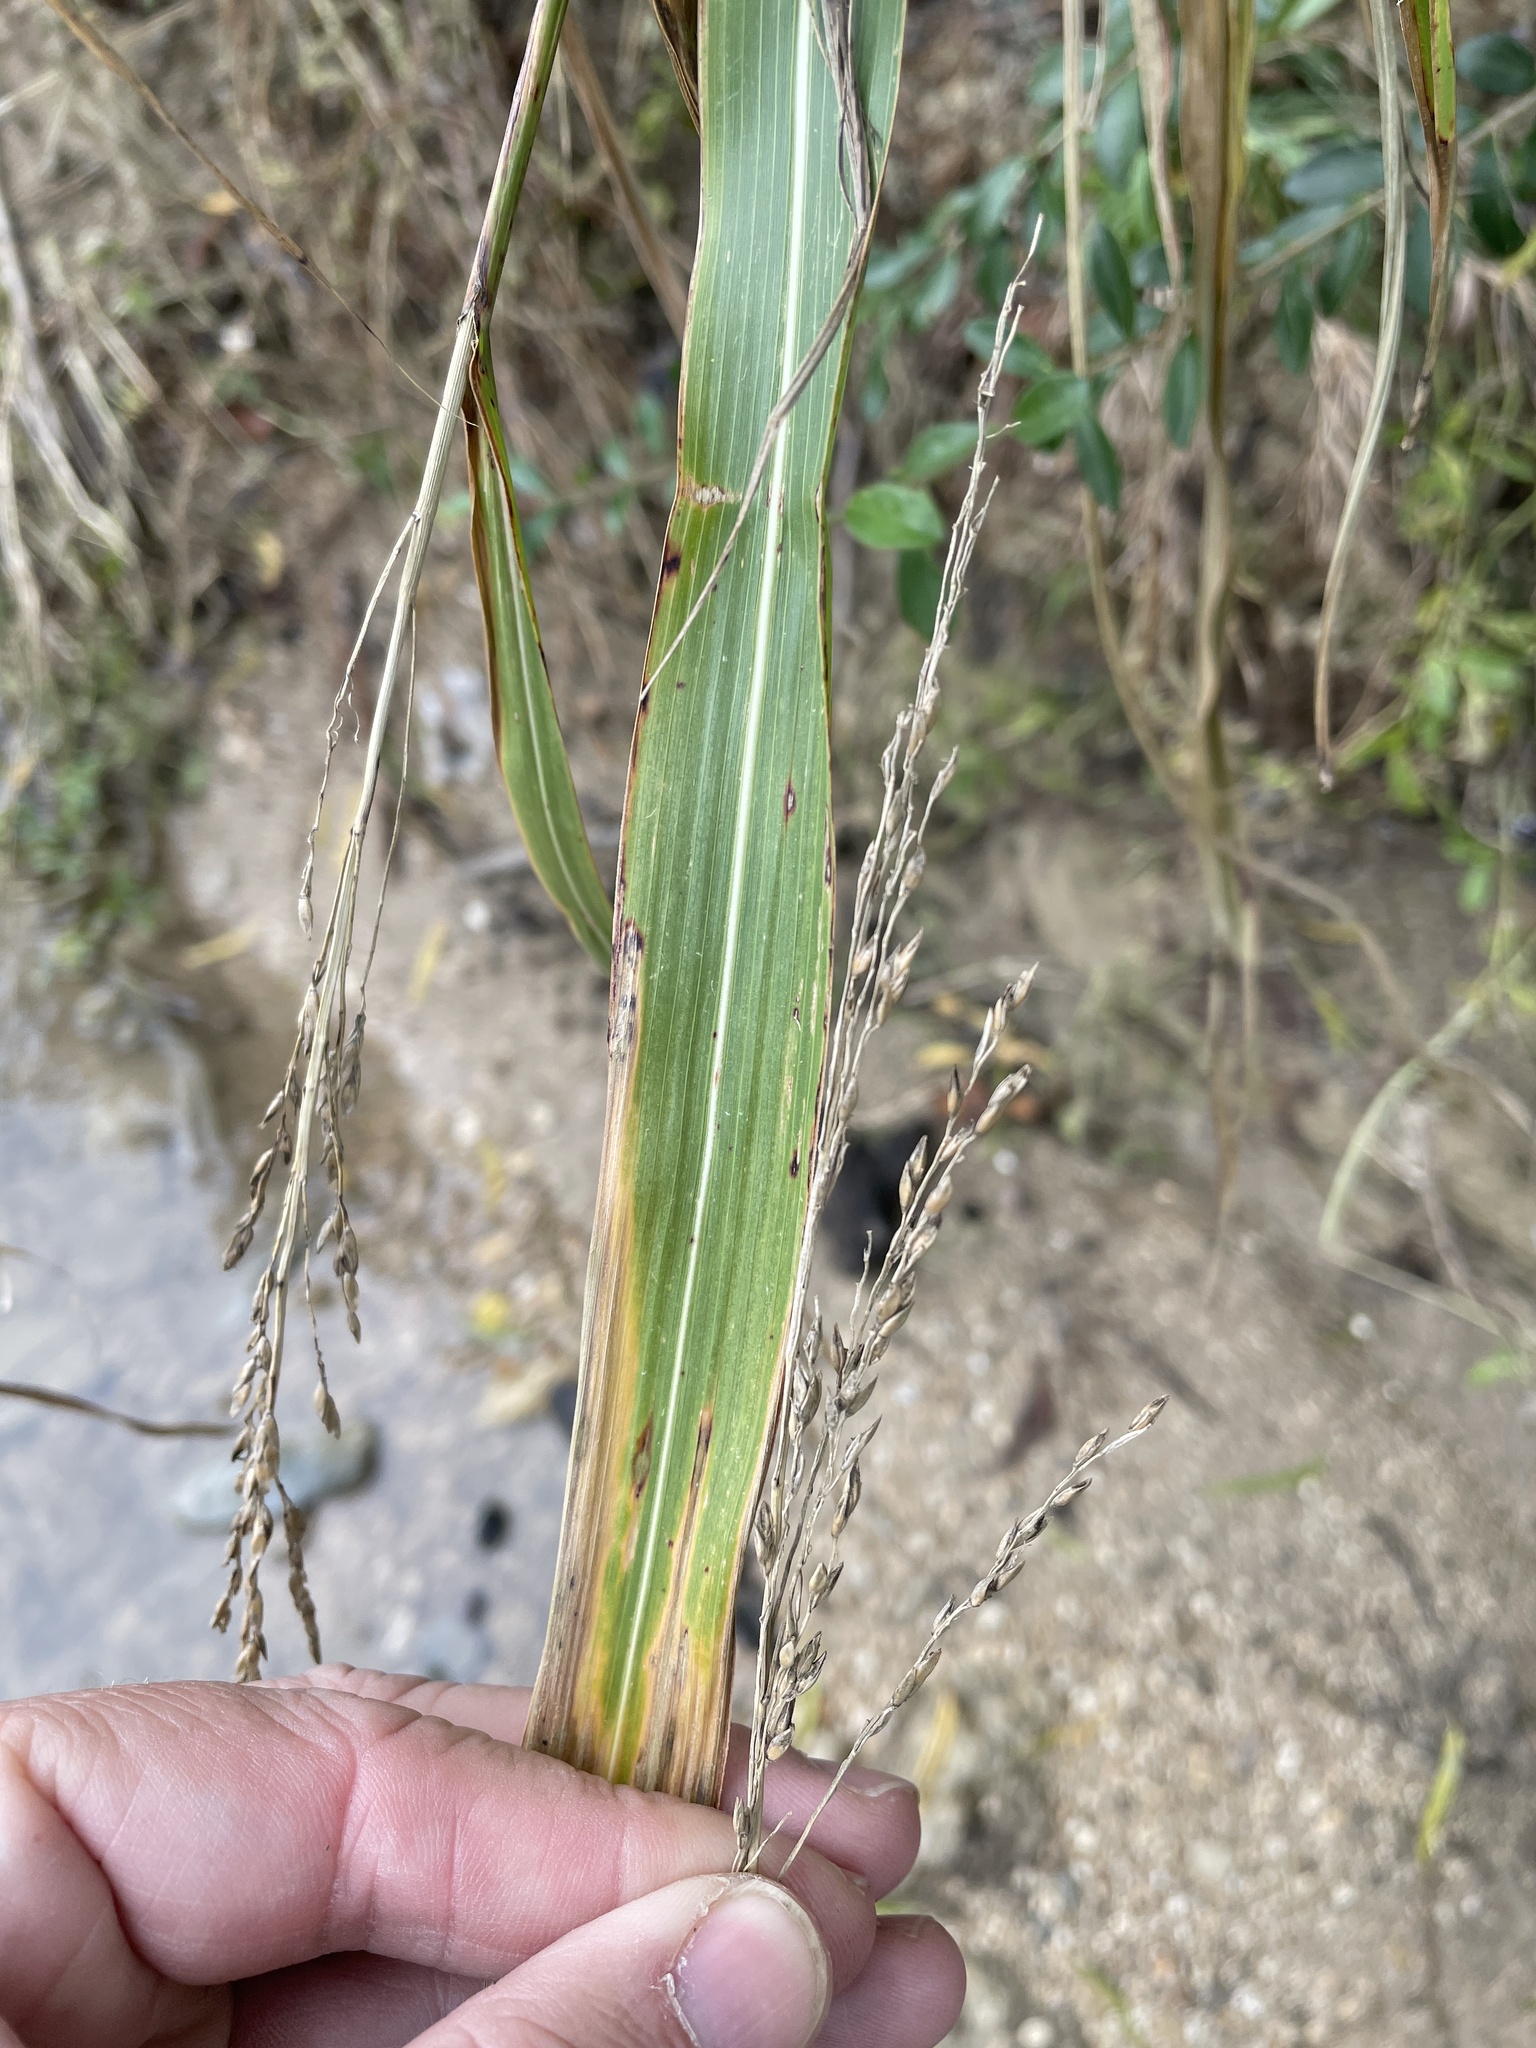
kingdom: Plantae
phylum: Tracheophyta
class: Liliopsida
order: Poales
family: Poaceae
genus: Sorghum
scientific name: Sorghum halepense
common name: Johnson-grass
